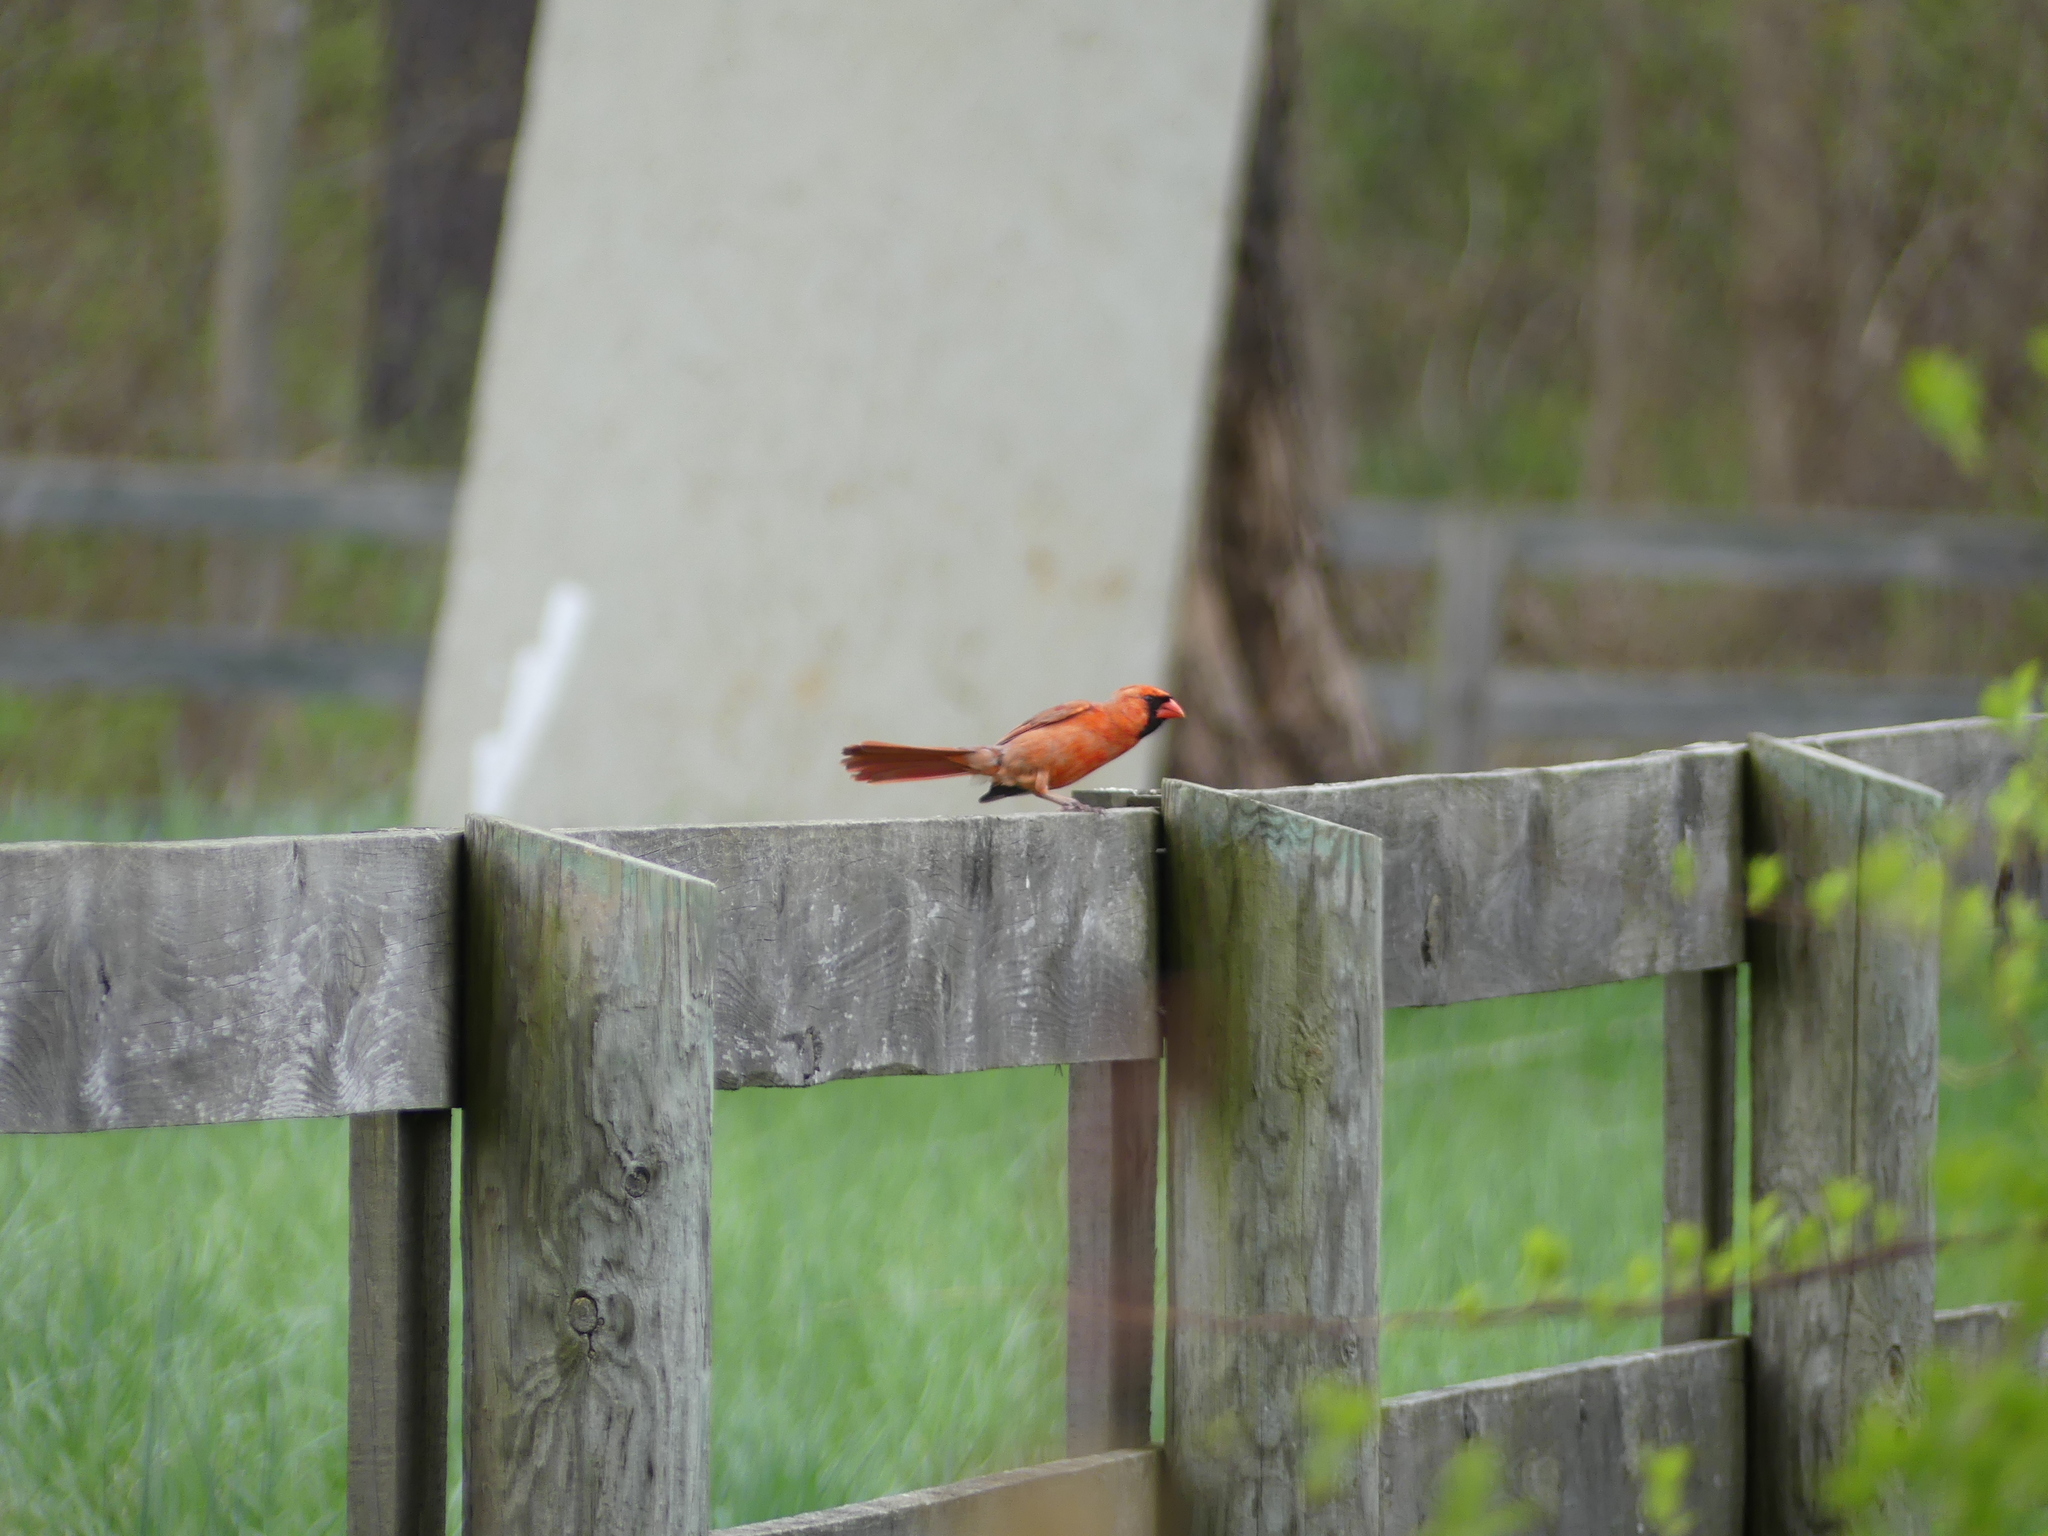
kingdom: Animalia
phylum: Chordata
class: Aves
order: Passeriformes
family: Cardinalidae
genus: Cardinalis
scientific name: Cardinalis cardinalis
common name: Northern cardinal
